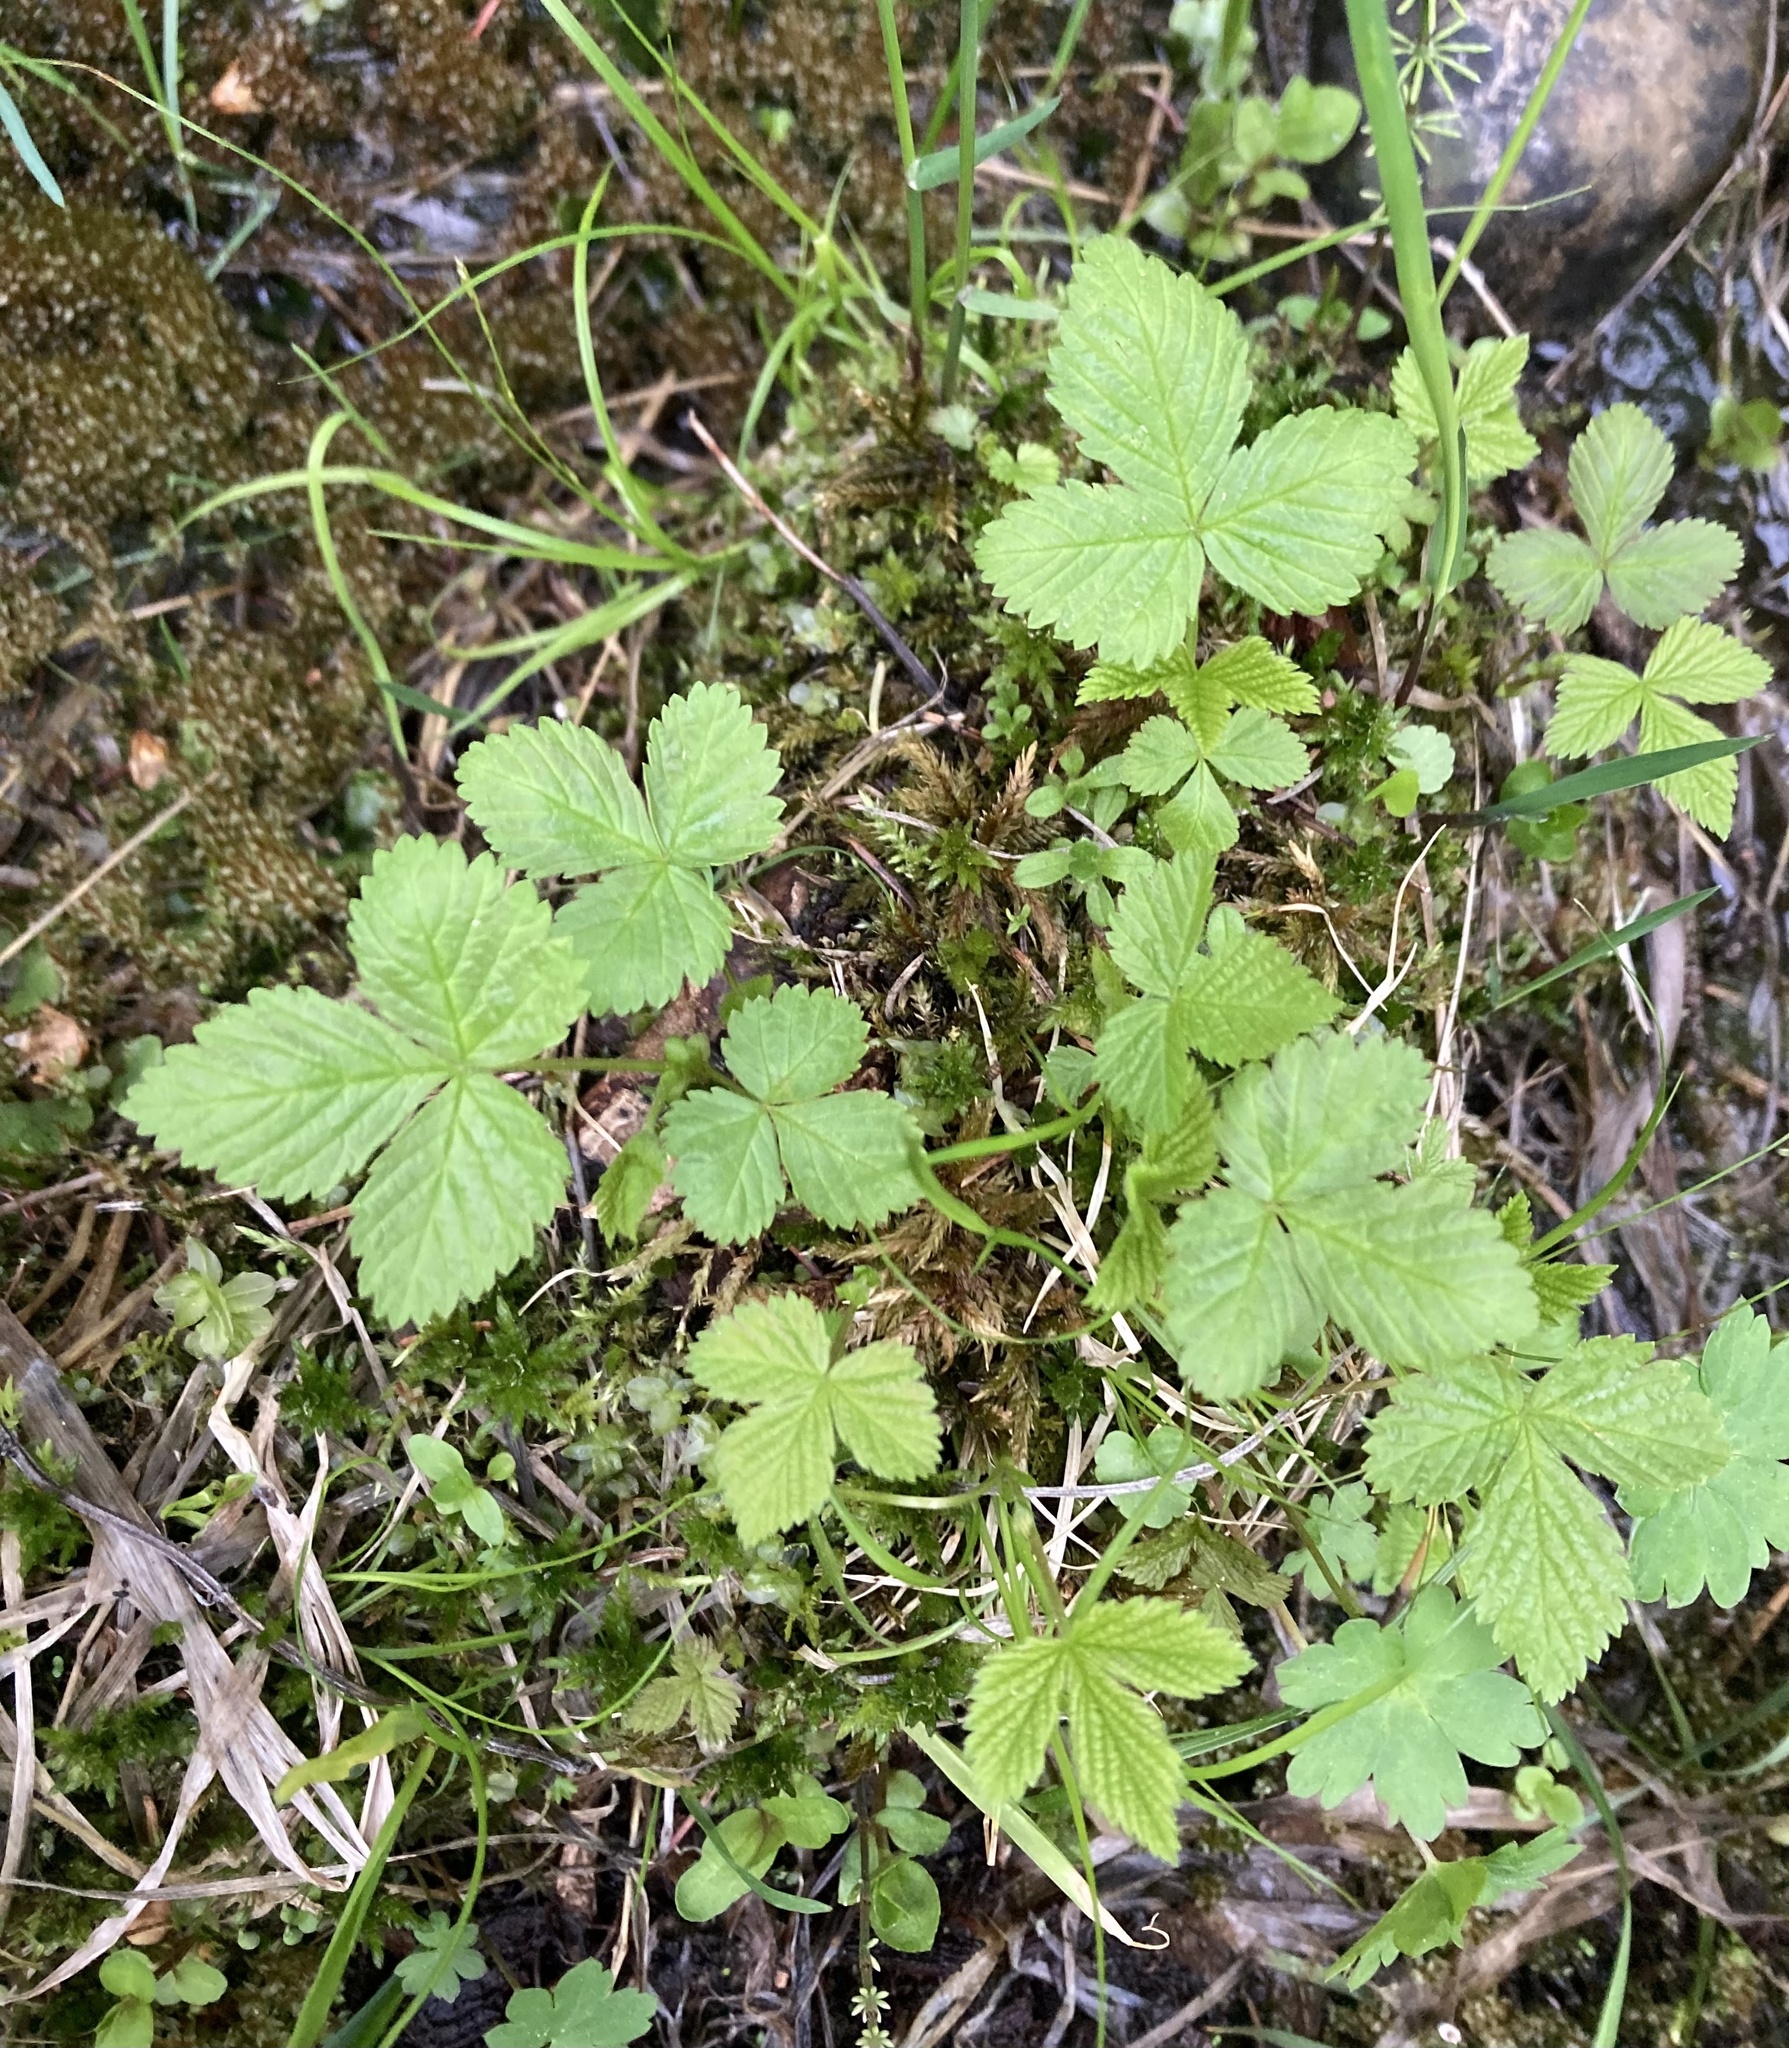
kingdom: Plantae
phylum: Tracheophyta
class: Magnoliopsida
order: Rosales
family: Rosaceae
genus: Rubus
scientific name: Rubus pubescens
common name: Dwarf raspberry
